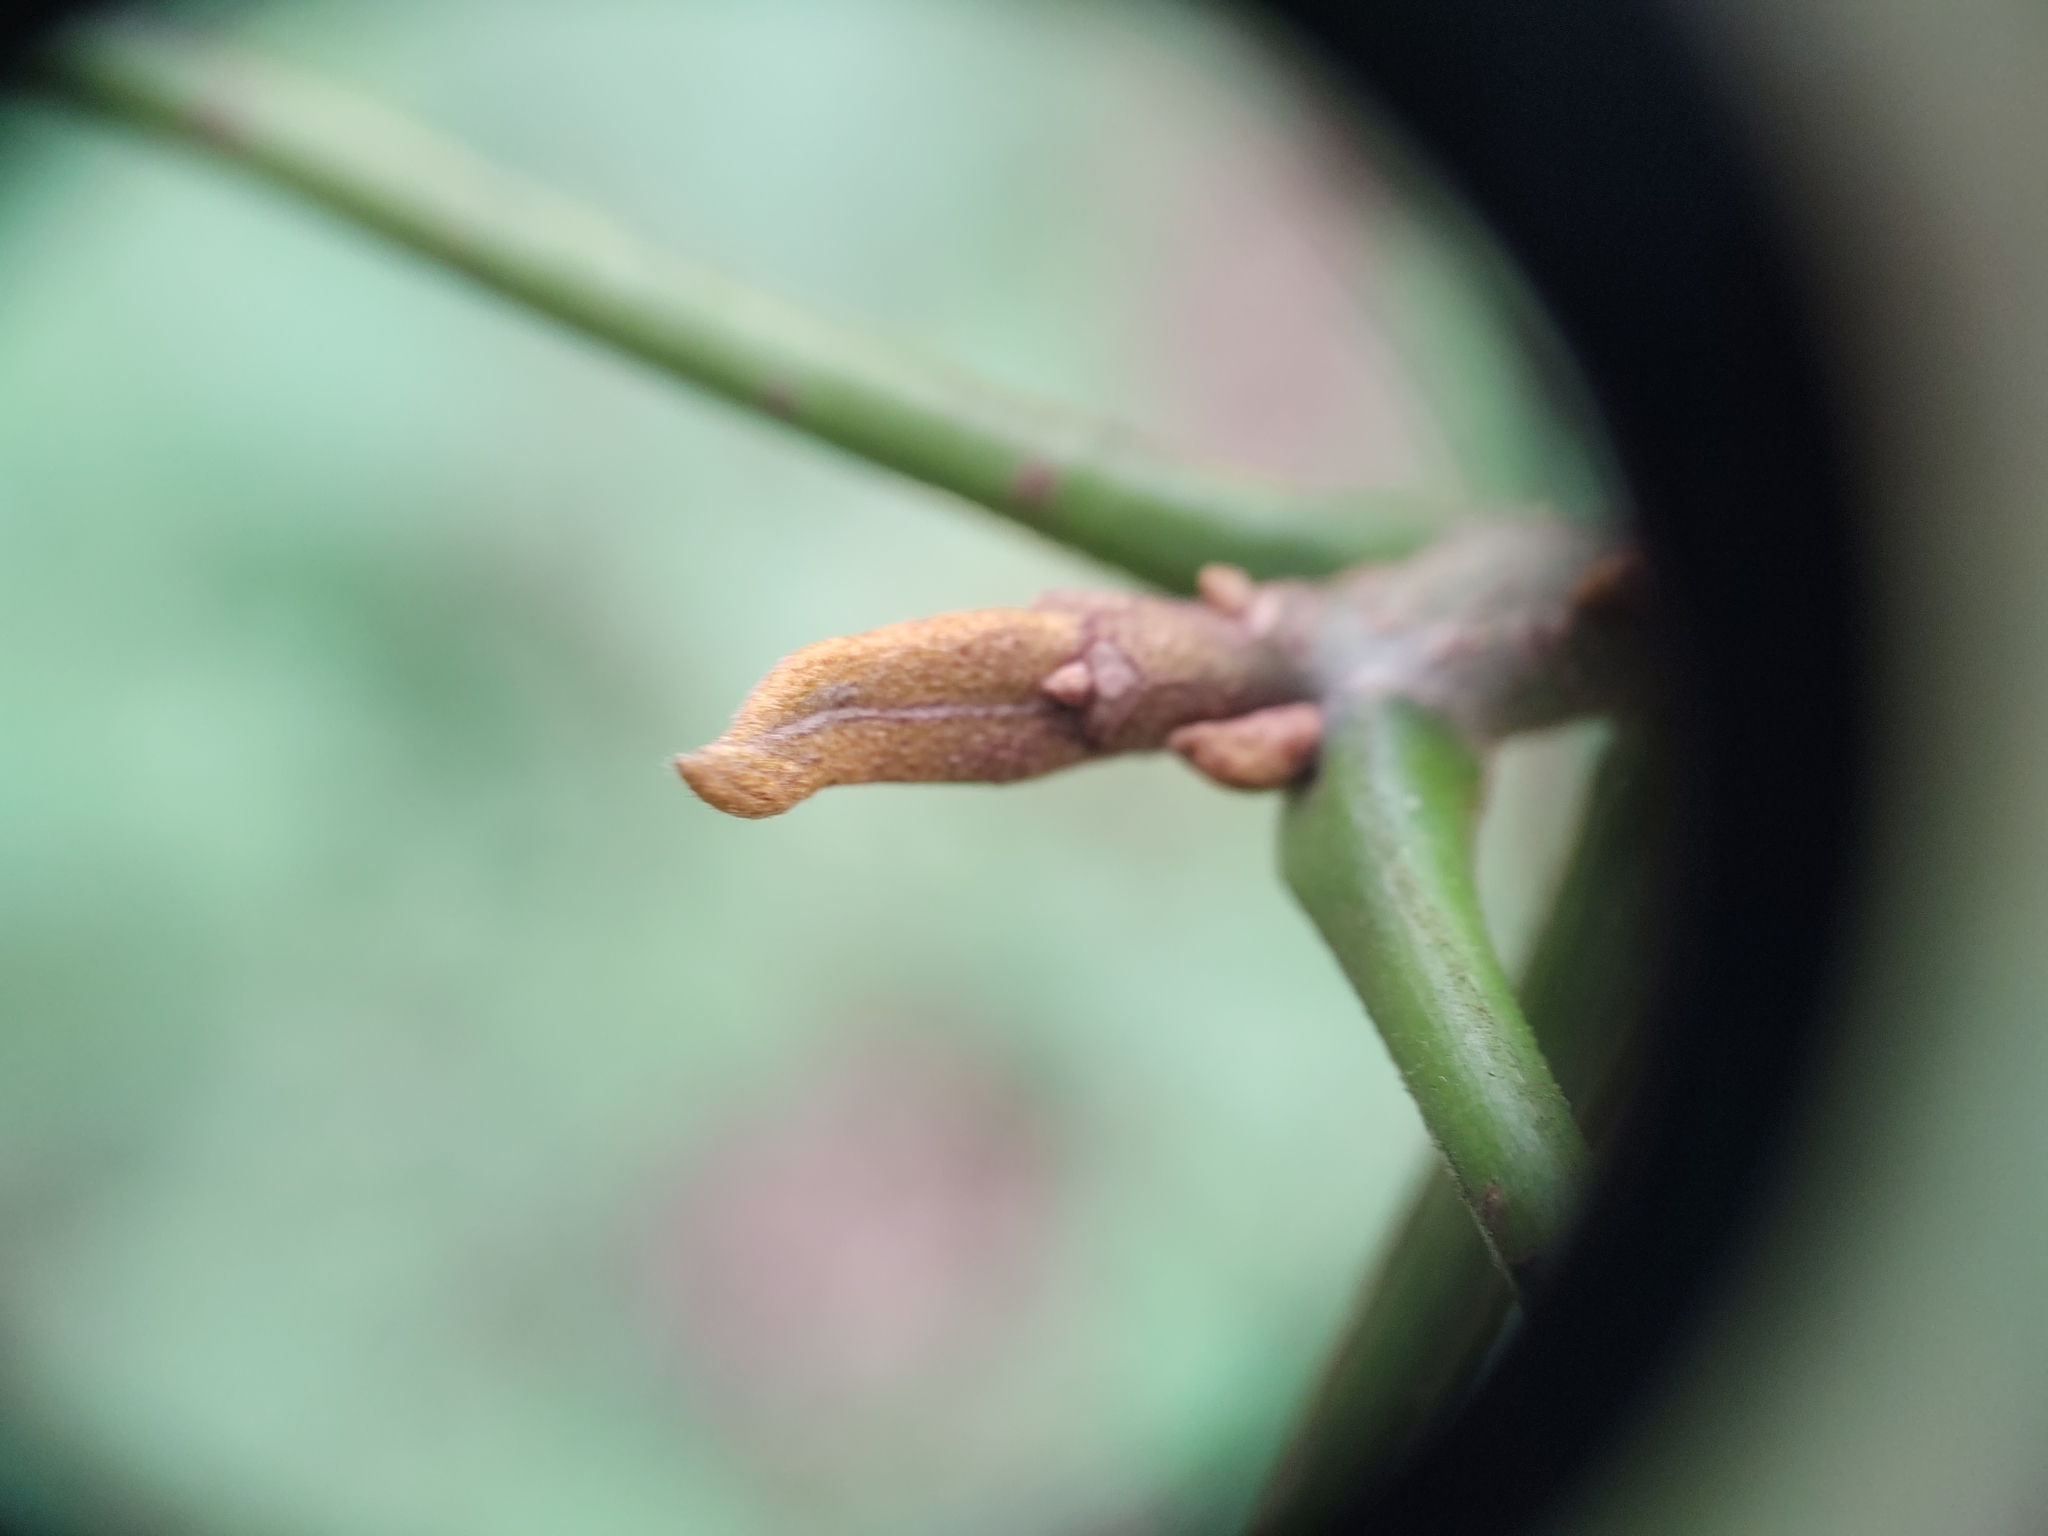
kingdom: Plantae
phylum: Tracheophyta
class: Magnoliopsida
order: Fagales
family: Juglandaceae
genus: Carya
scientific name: Carya cordiformis
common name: Bitternut hickory
